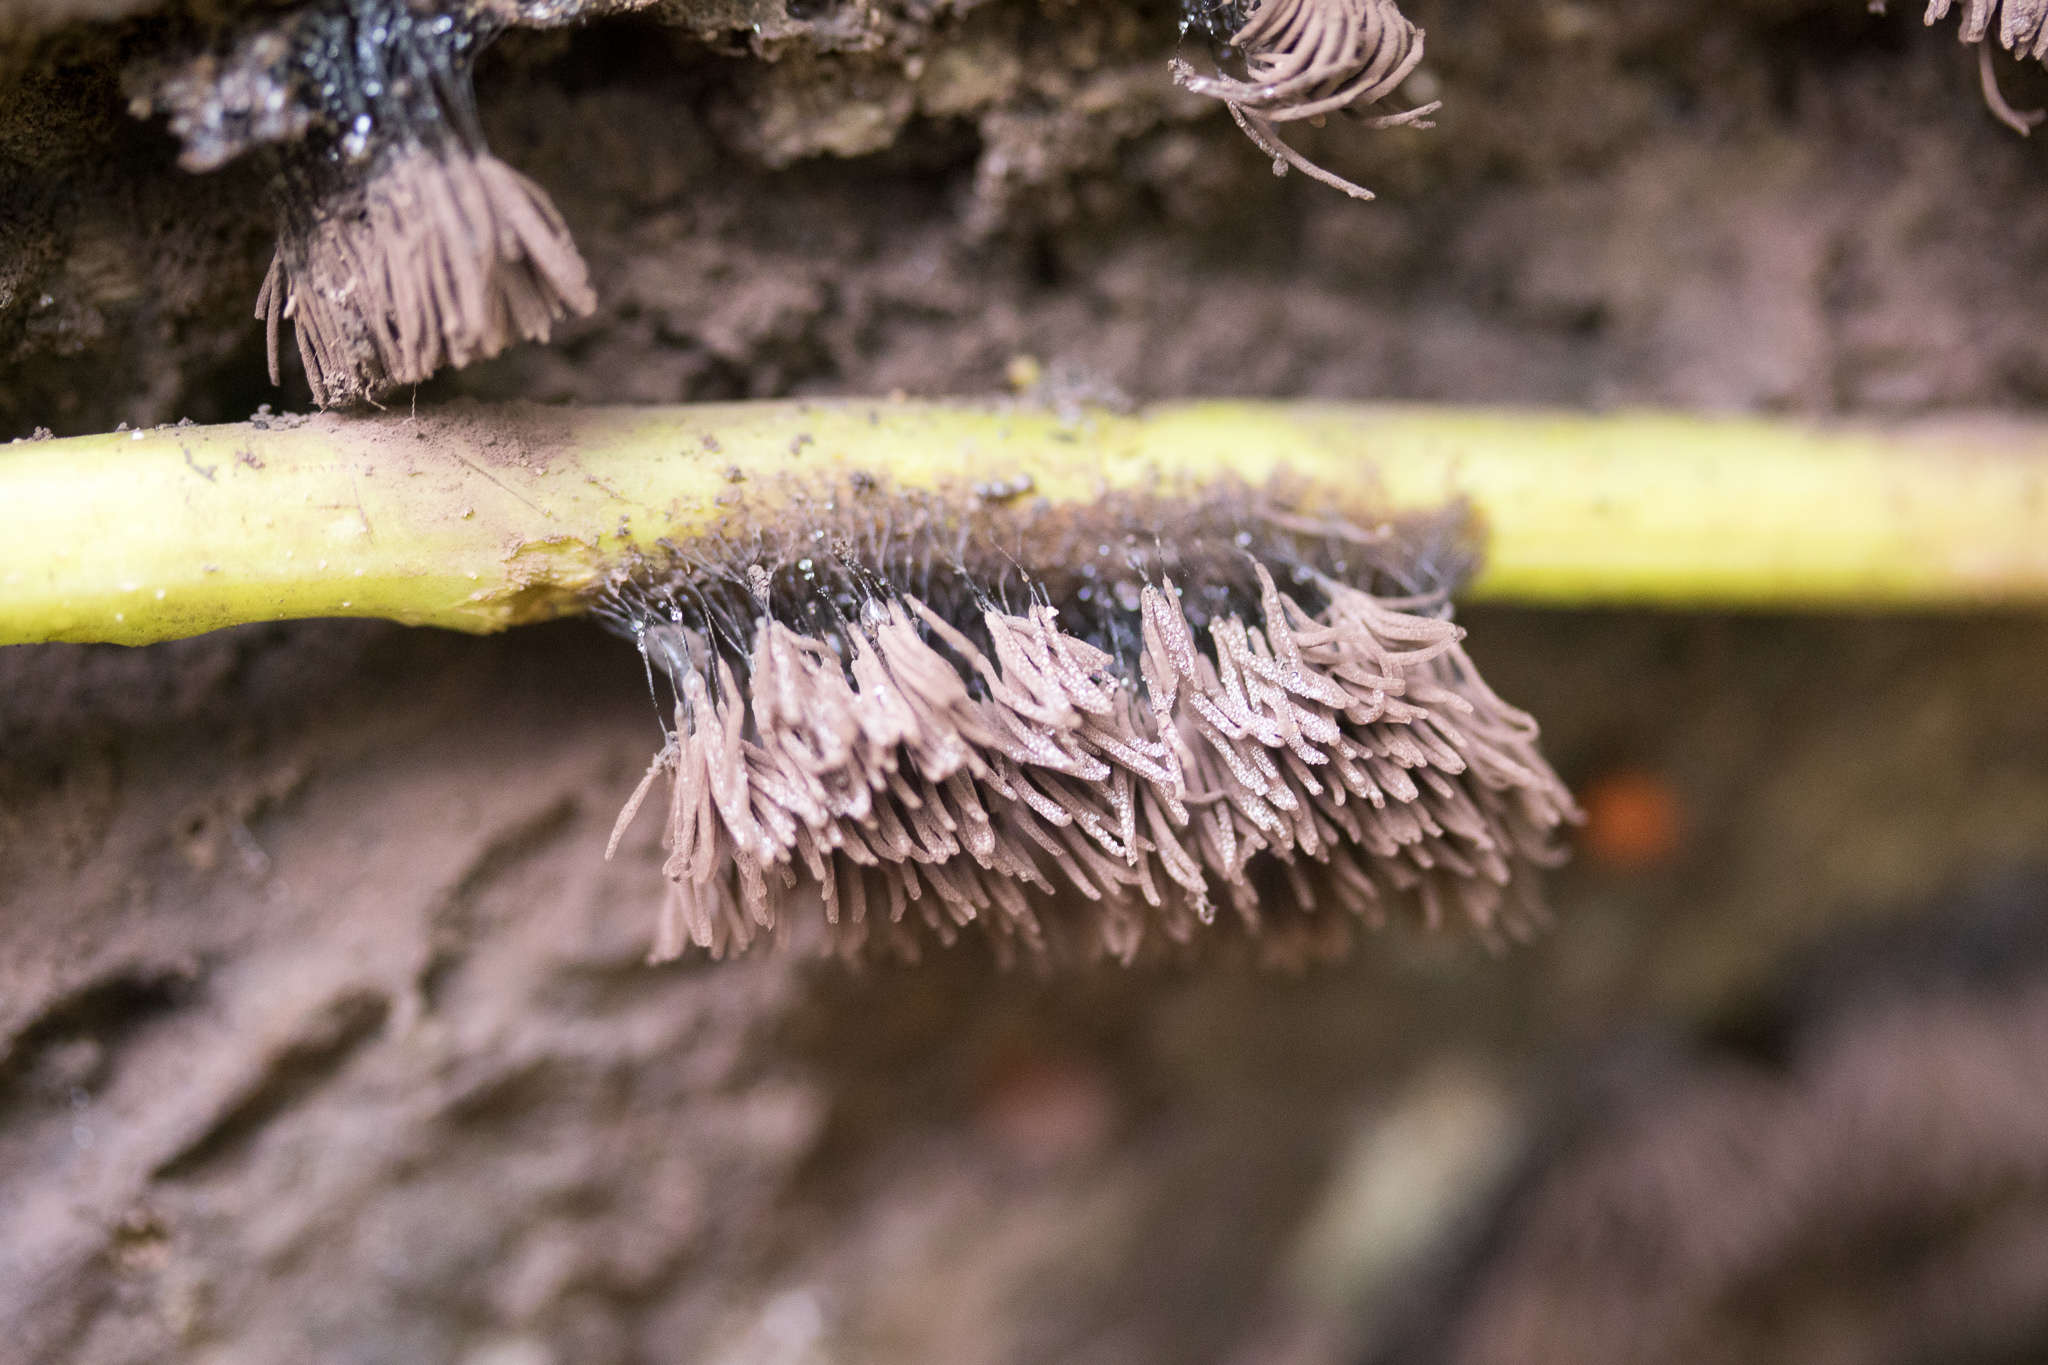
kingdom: Protozoa
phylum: Mycetozoa
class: Myxomycetes
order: Stemonitidales
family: Stemonitidaceae
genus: Stemonitis
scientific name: Stemonitis splendens
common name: Chocolate tube slime
